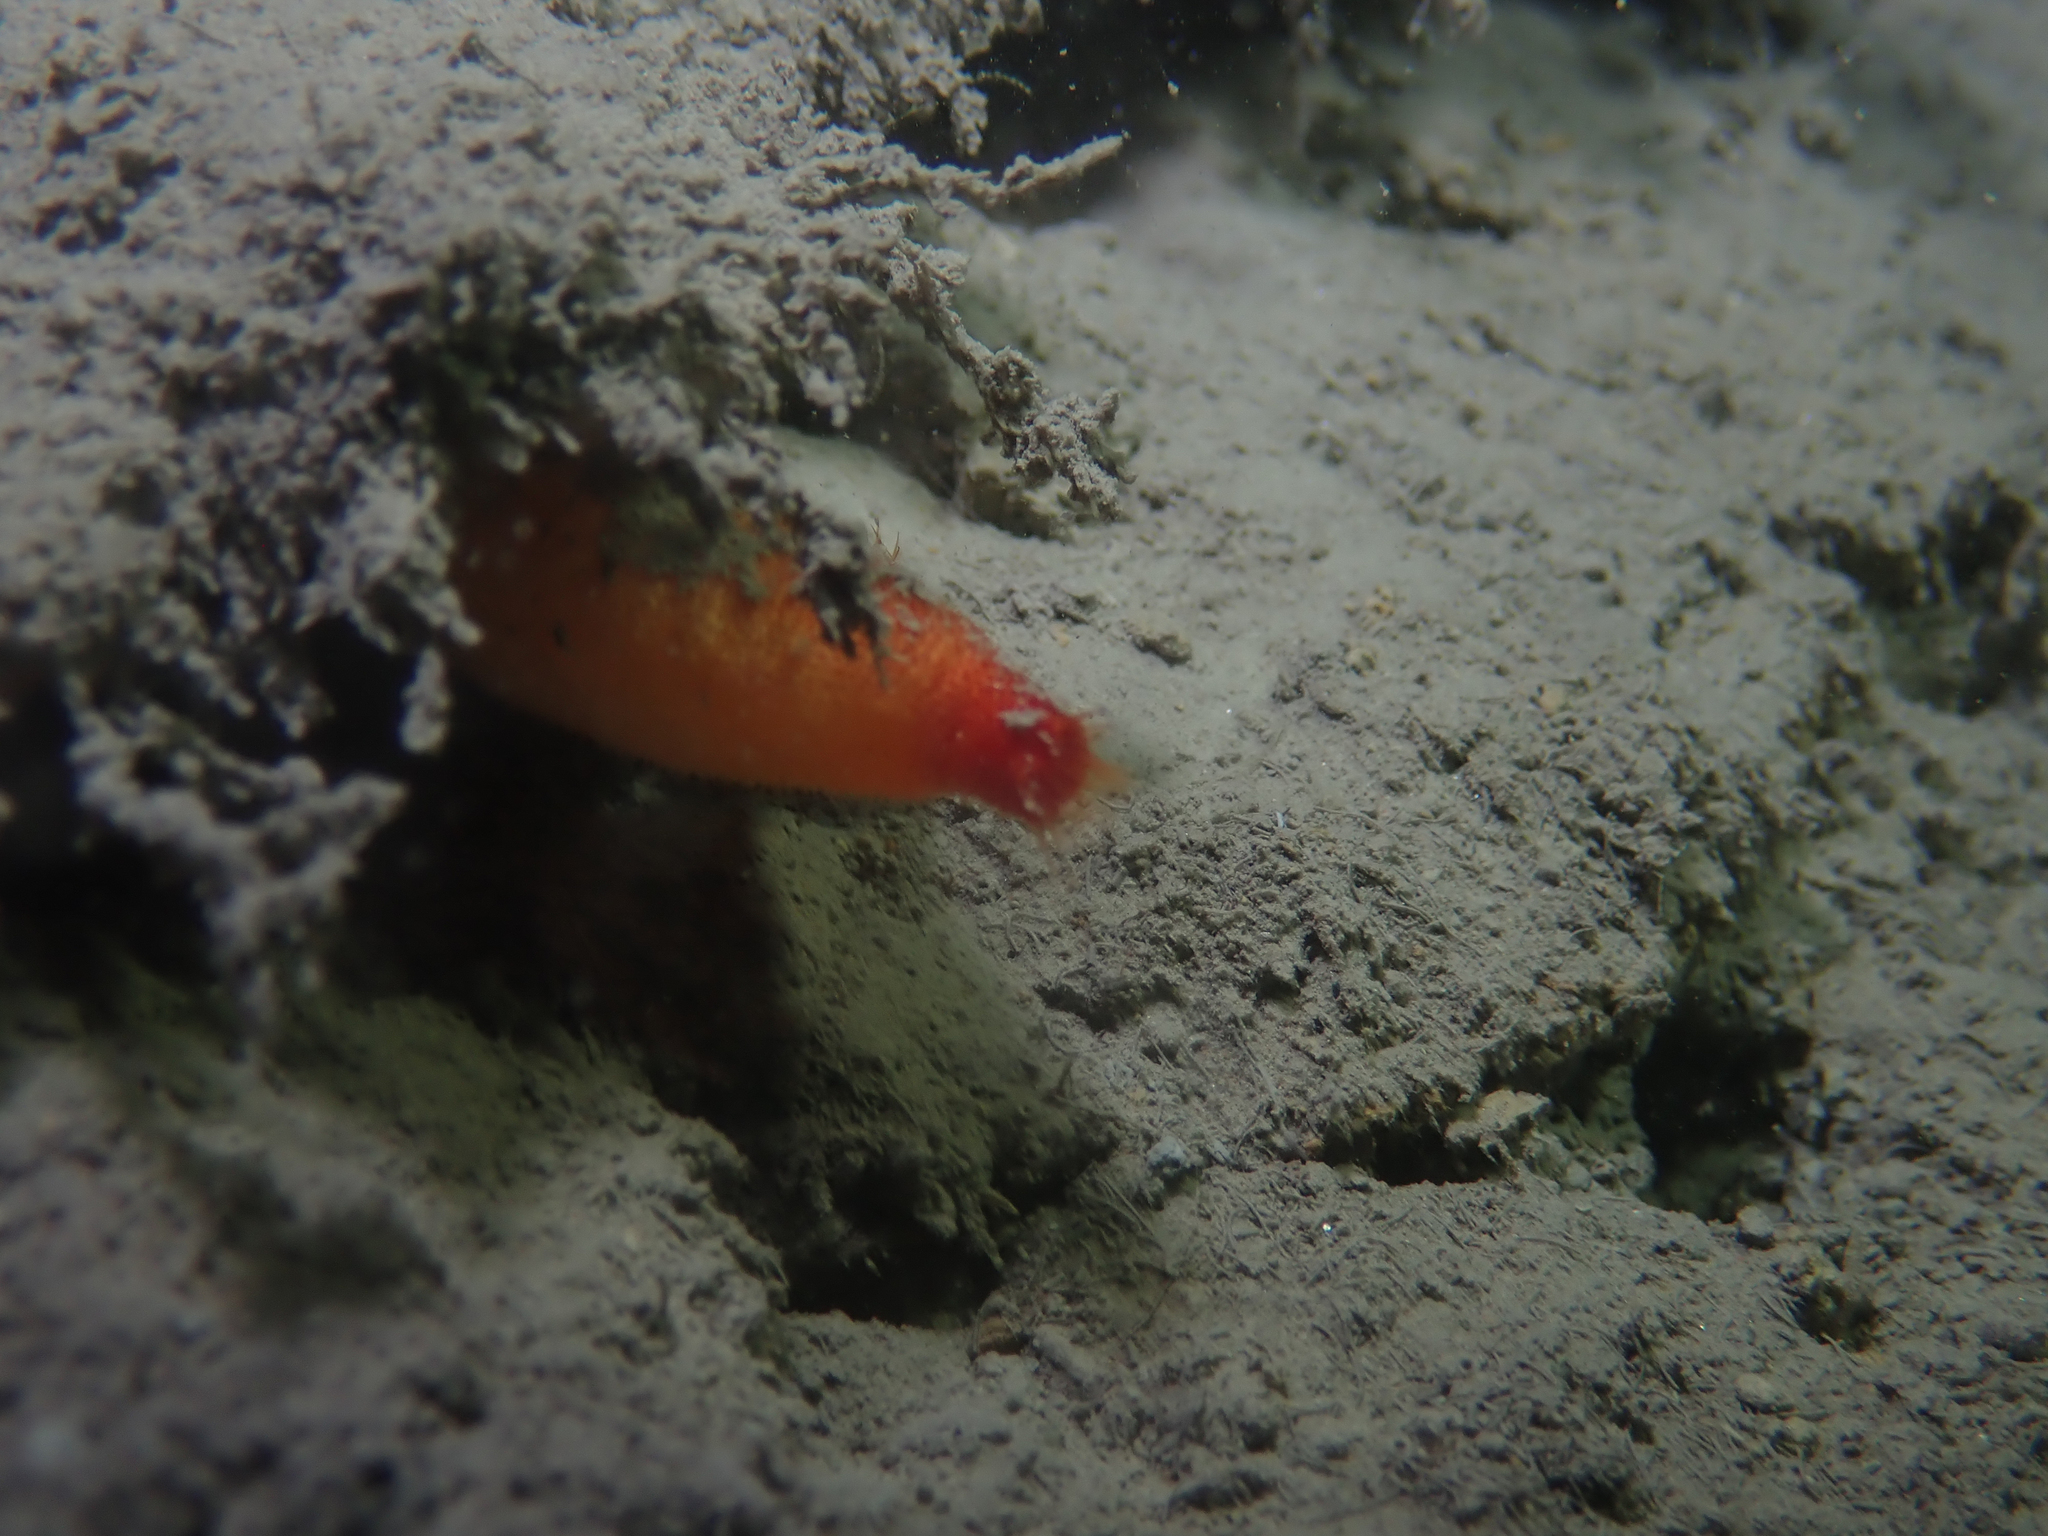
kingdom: Animalia
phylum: Chordata
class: Ascidiacea
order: Stolidobranchia
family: Pyuridae
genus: Halocynthia
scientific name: Halocynthia papillosa
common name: Red sea-squirt
